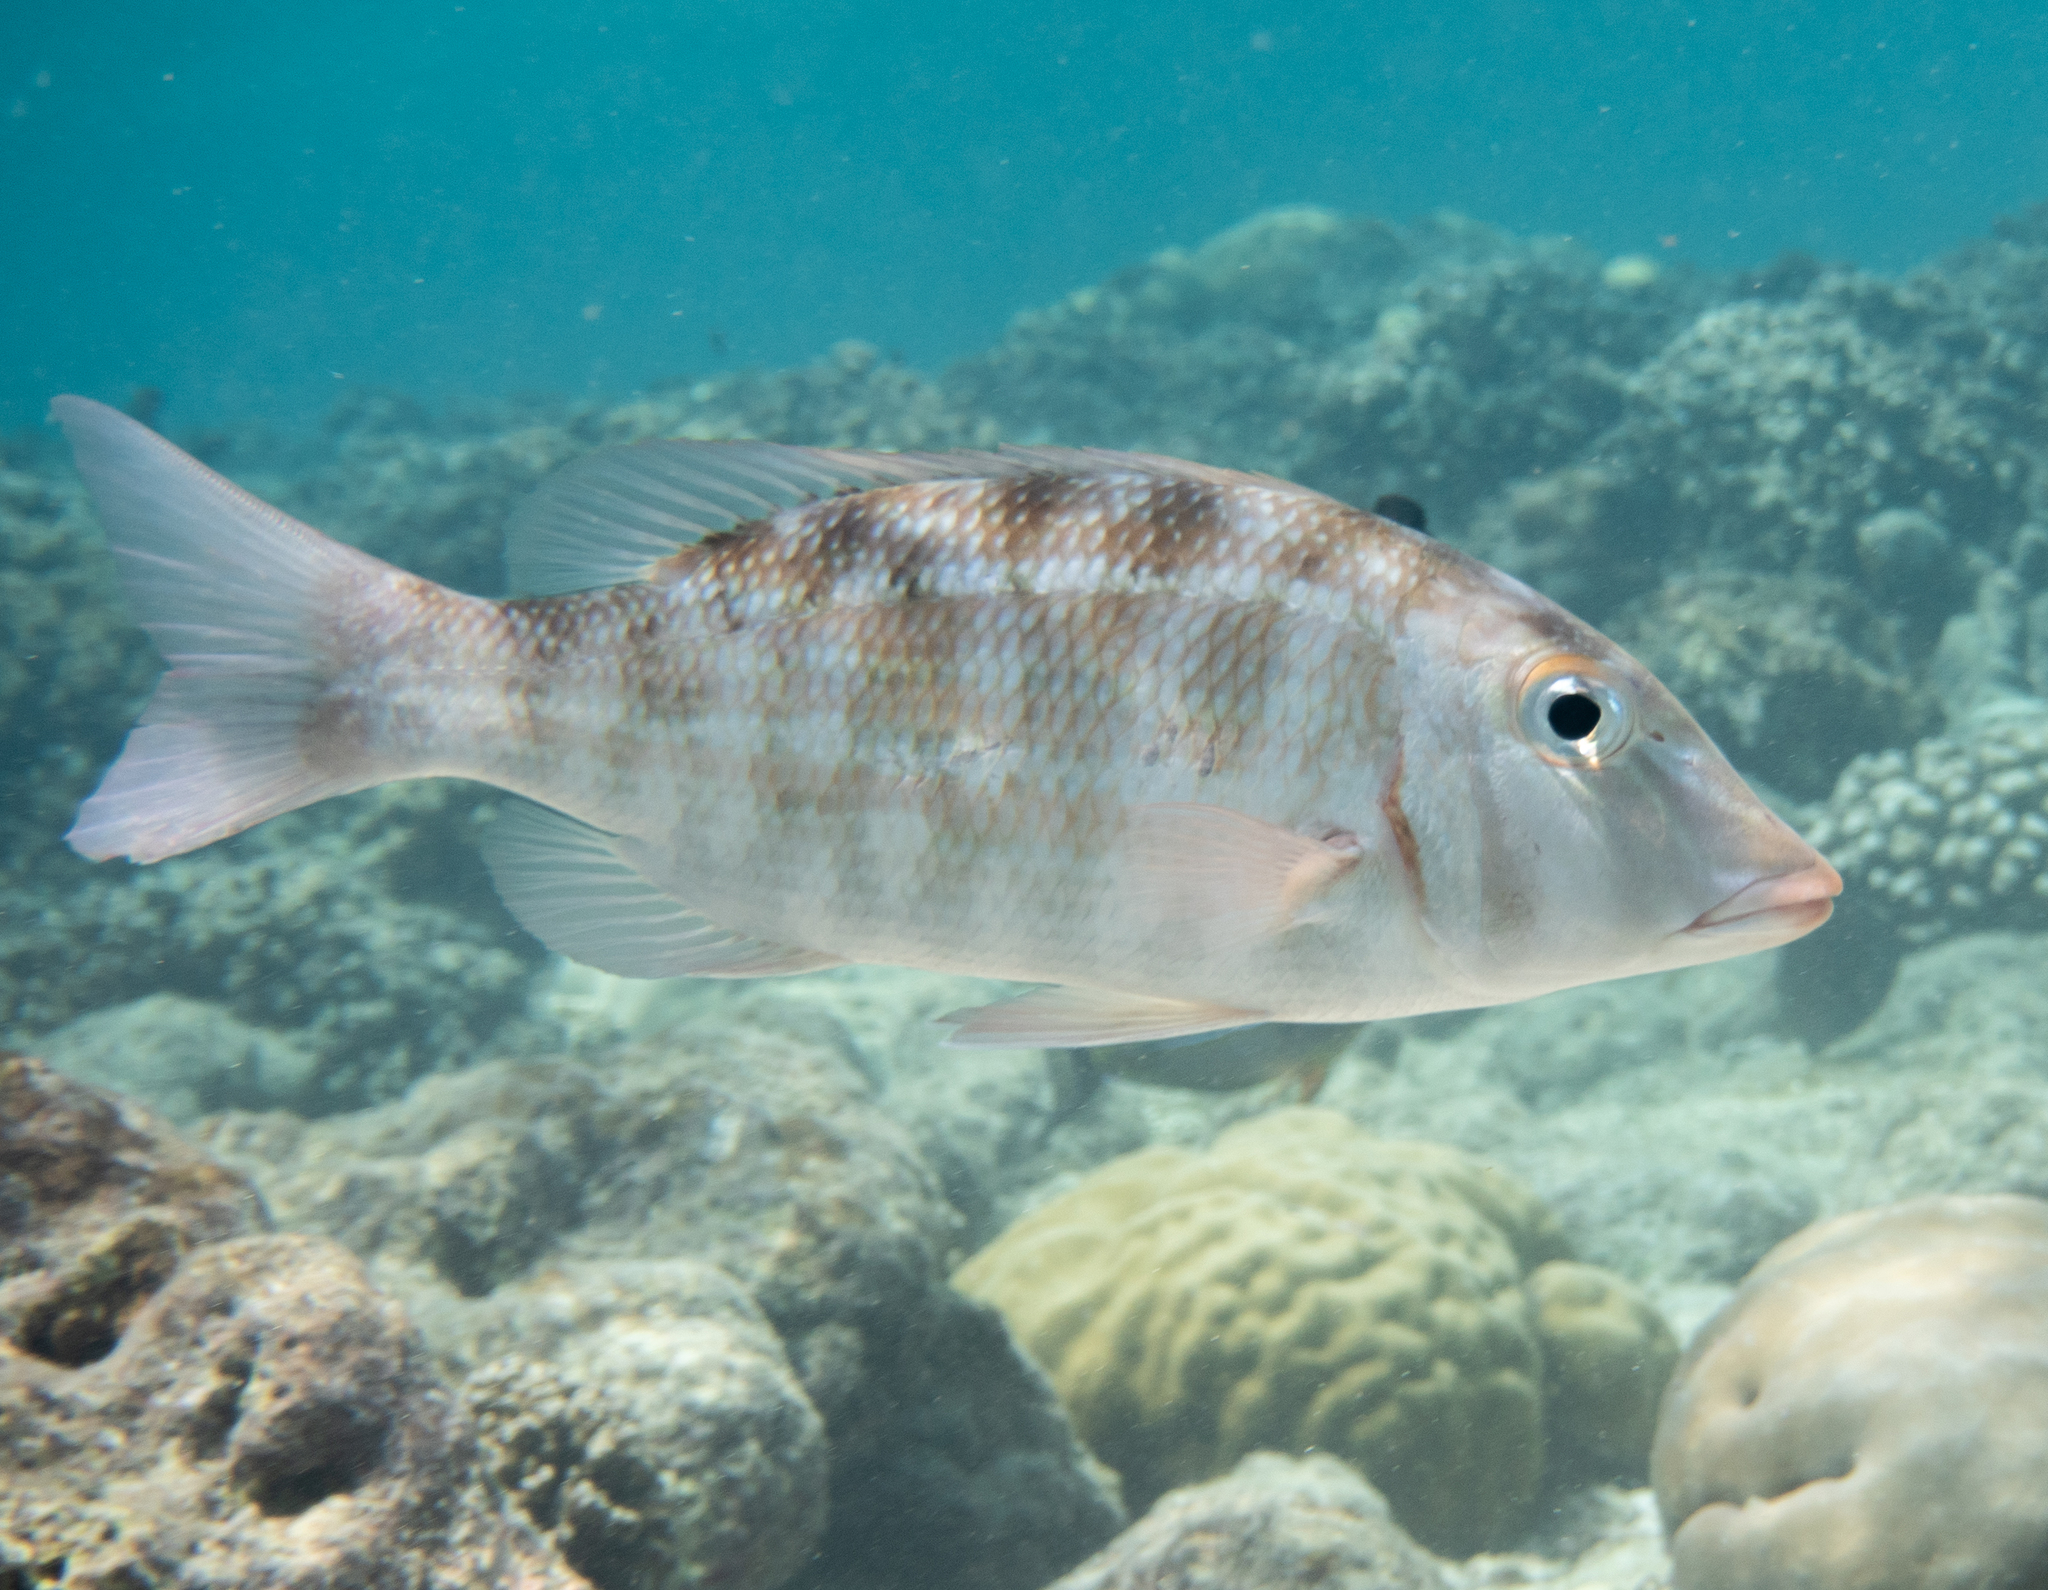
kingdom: Animalia
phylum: Chordata
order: Perciformes
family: Lethrinidae
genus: Lethrinus
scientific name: Lethrinus obsoletus
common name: Orange-striped emperor
